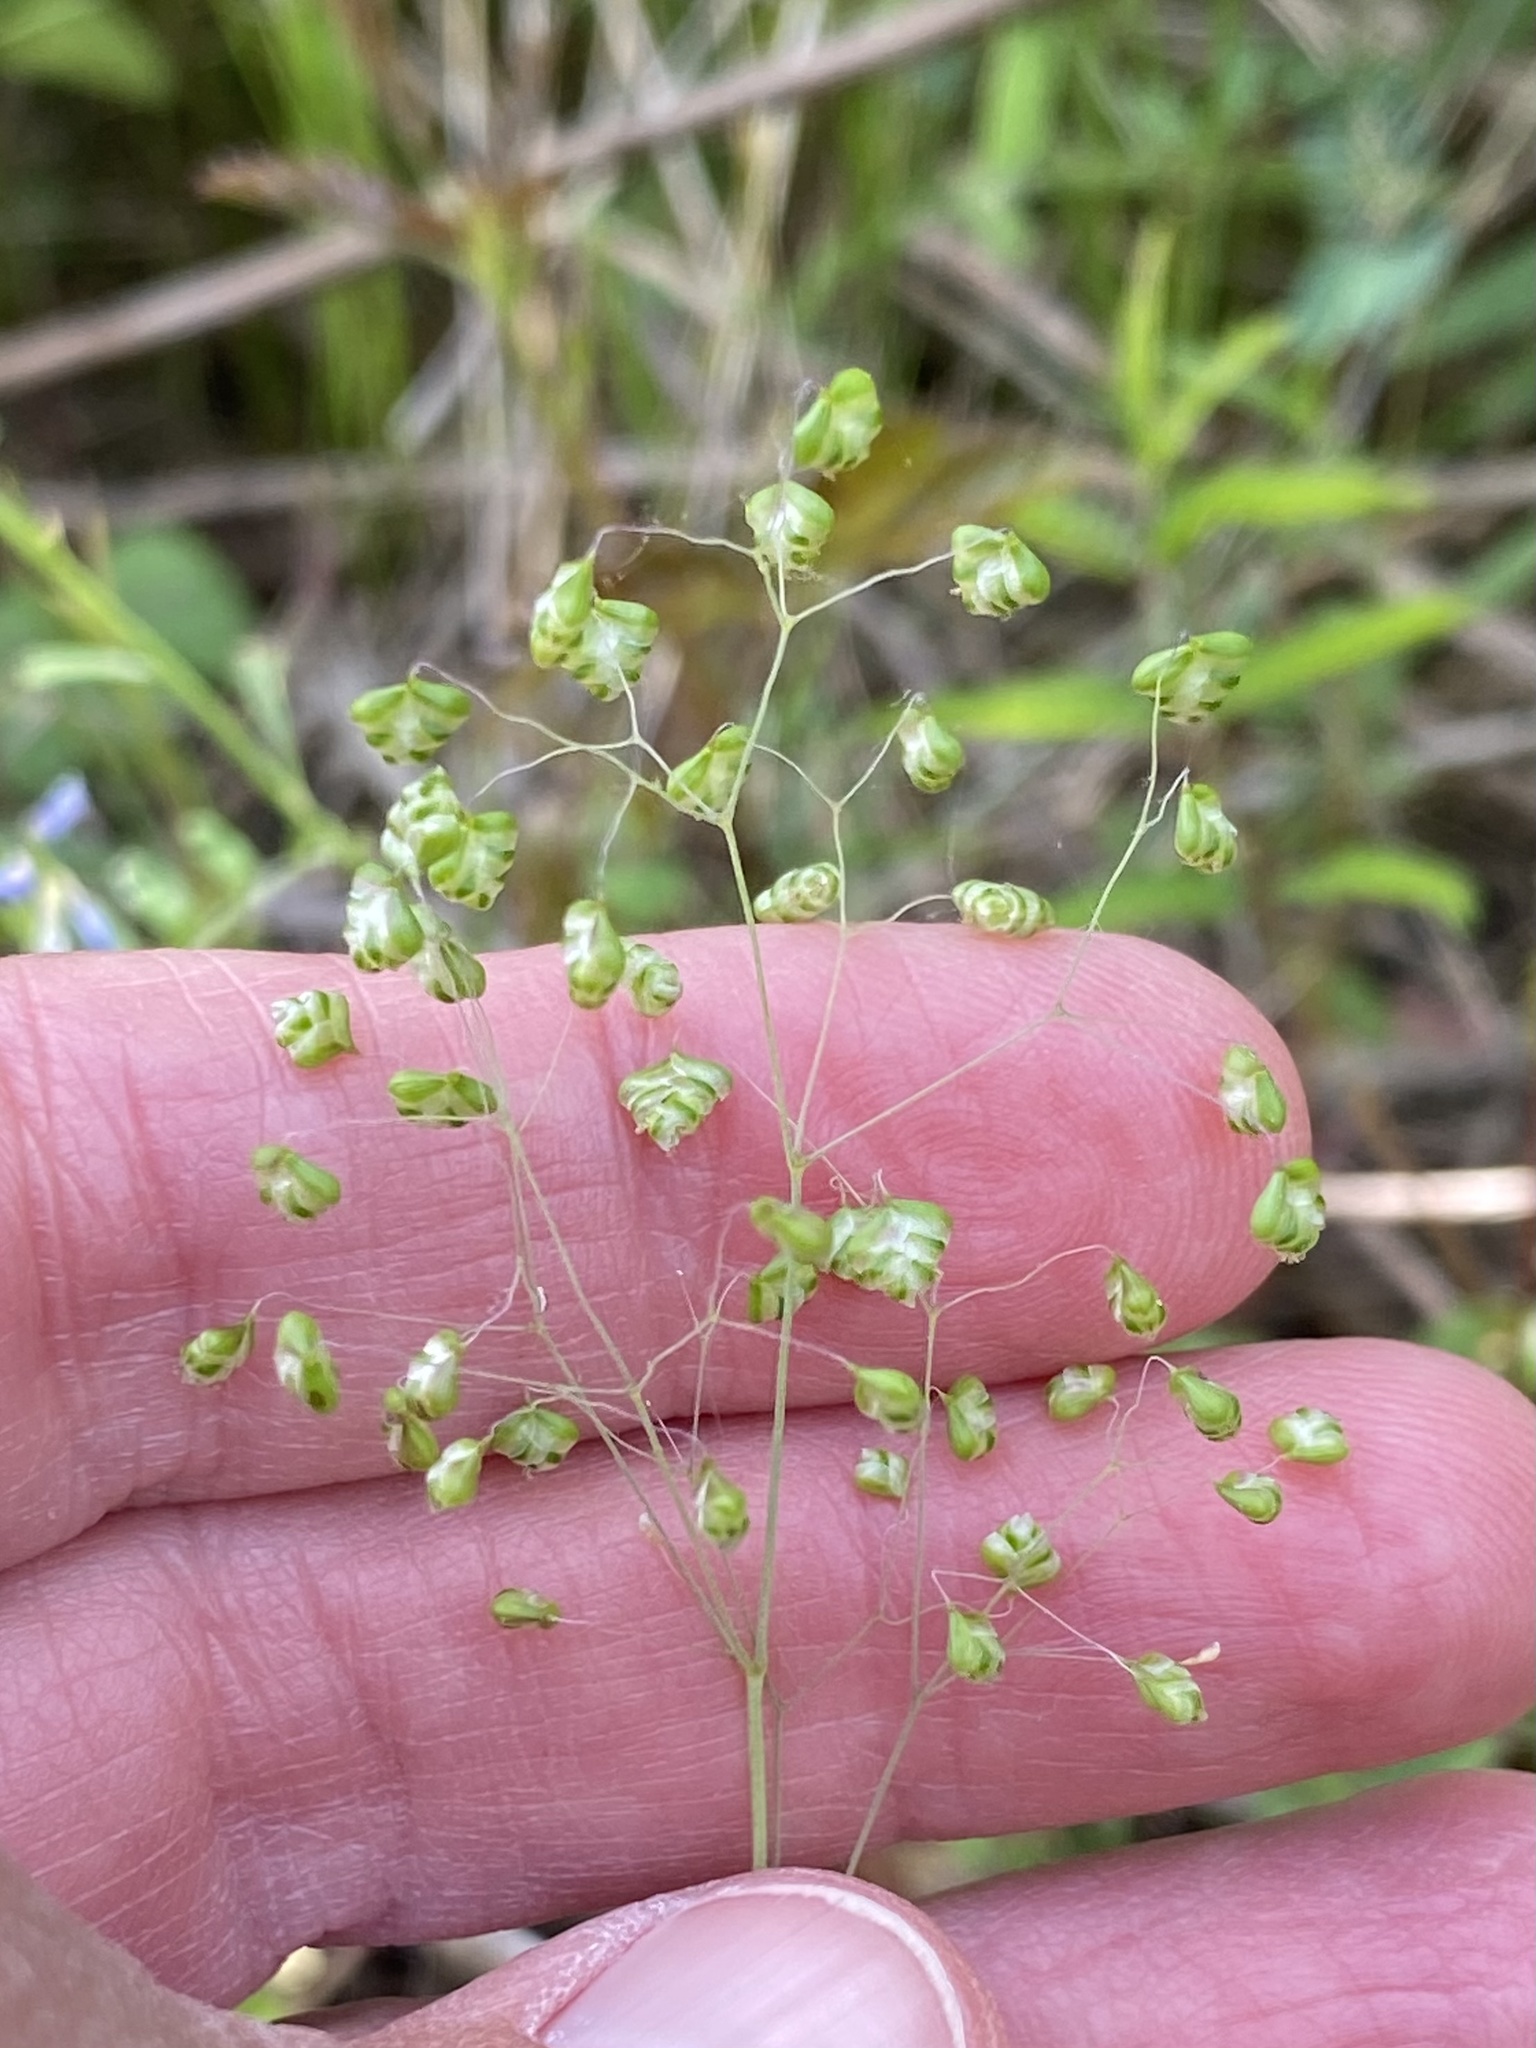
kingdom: Plantae
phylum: Tracheophyta
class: Liliopsida
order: Poales
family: Poaceae
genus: Briza
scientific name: Briza minor
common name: Lesser quaking-grass
